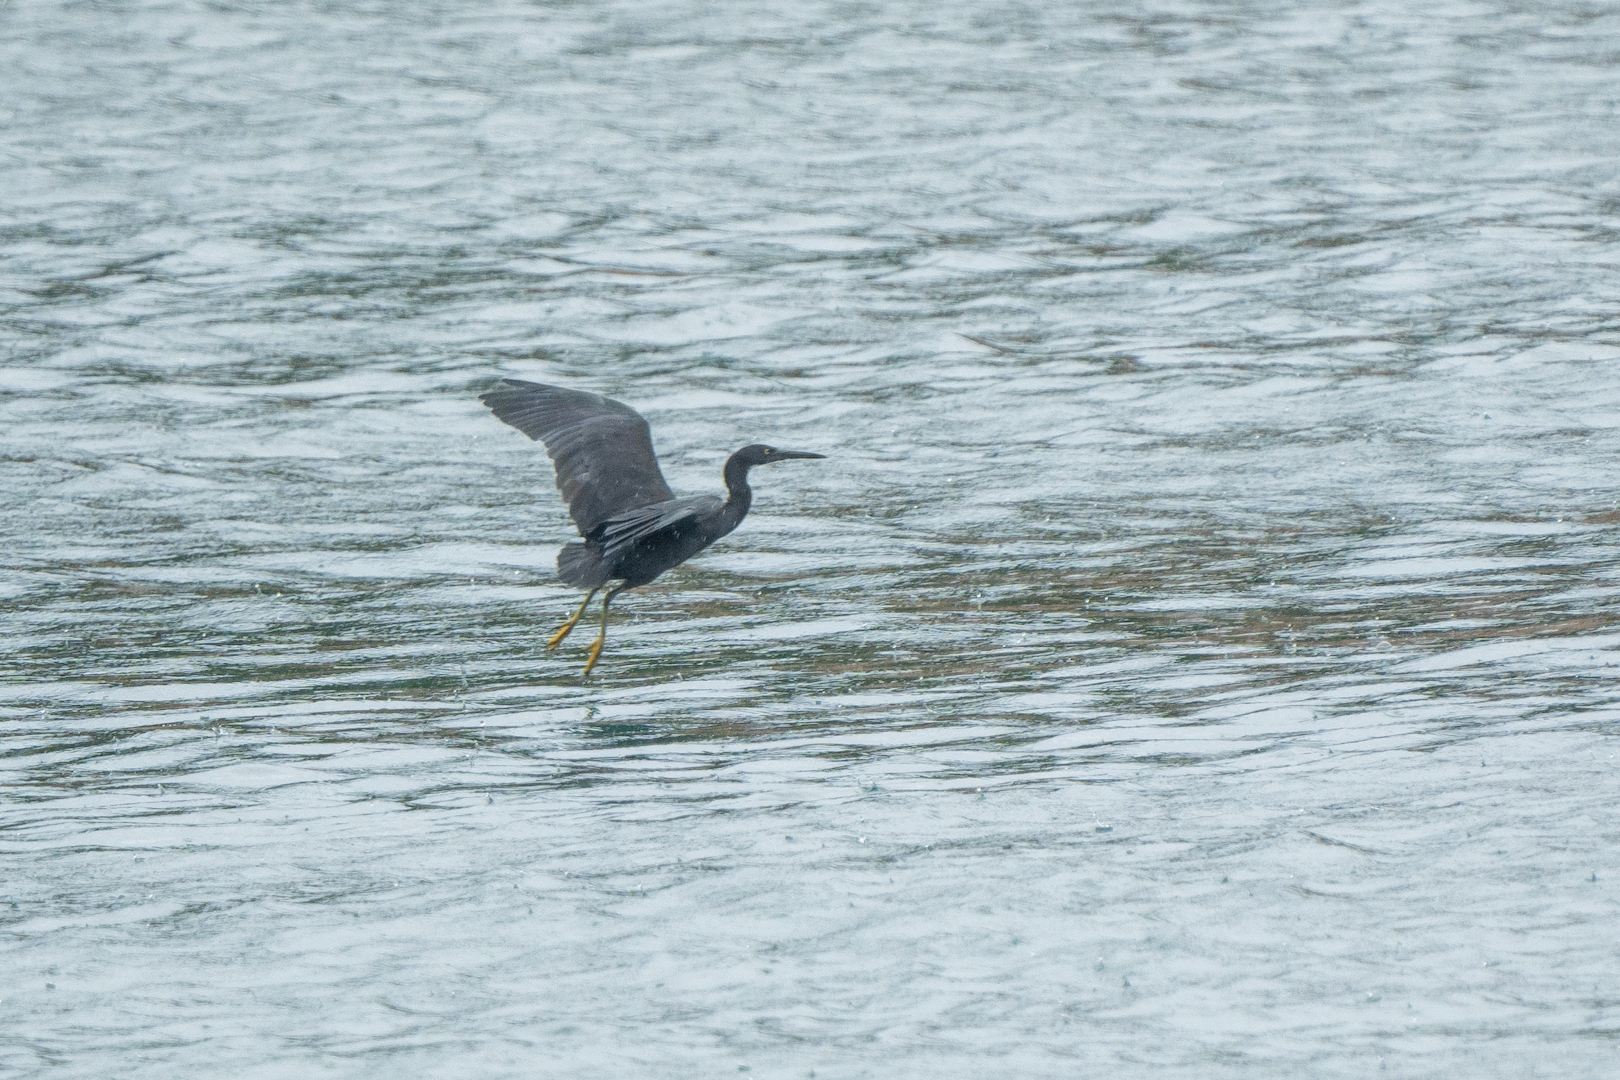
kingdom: Animalia
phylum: Chordata
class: Aves
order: Pelecaniformes
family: Ardeidae
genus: Egretta
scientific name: Egretta sacra
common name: Pacific reef heron
